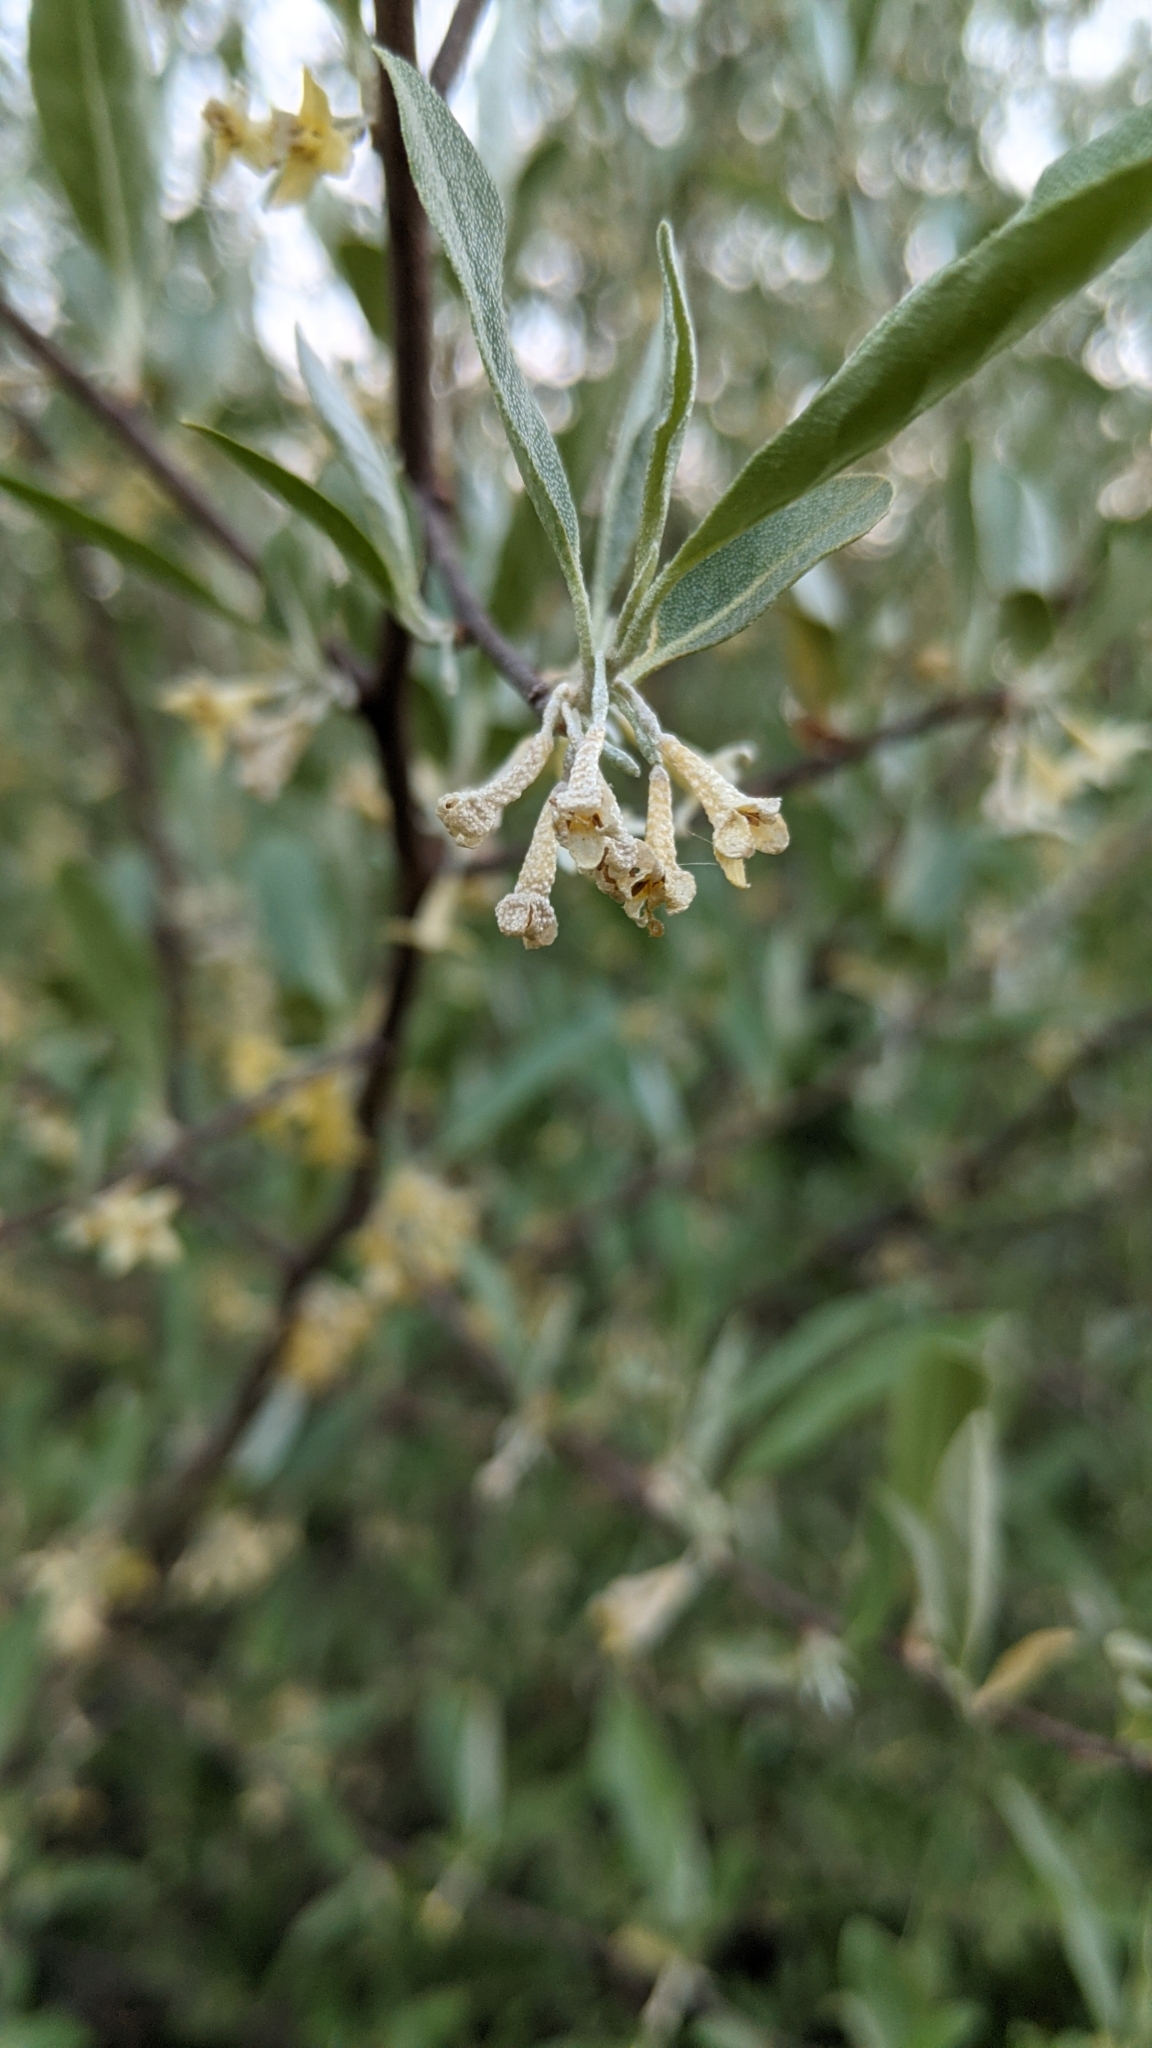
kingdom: Plantae
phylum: Tracheophyta
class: Magnoliopsida
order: Rosales
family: Elaeagnaceae
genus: Elaeagnus
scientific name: Elaeagnus umbellata
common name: Autumn olive
